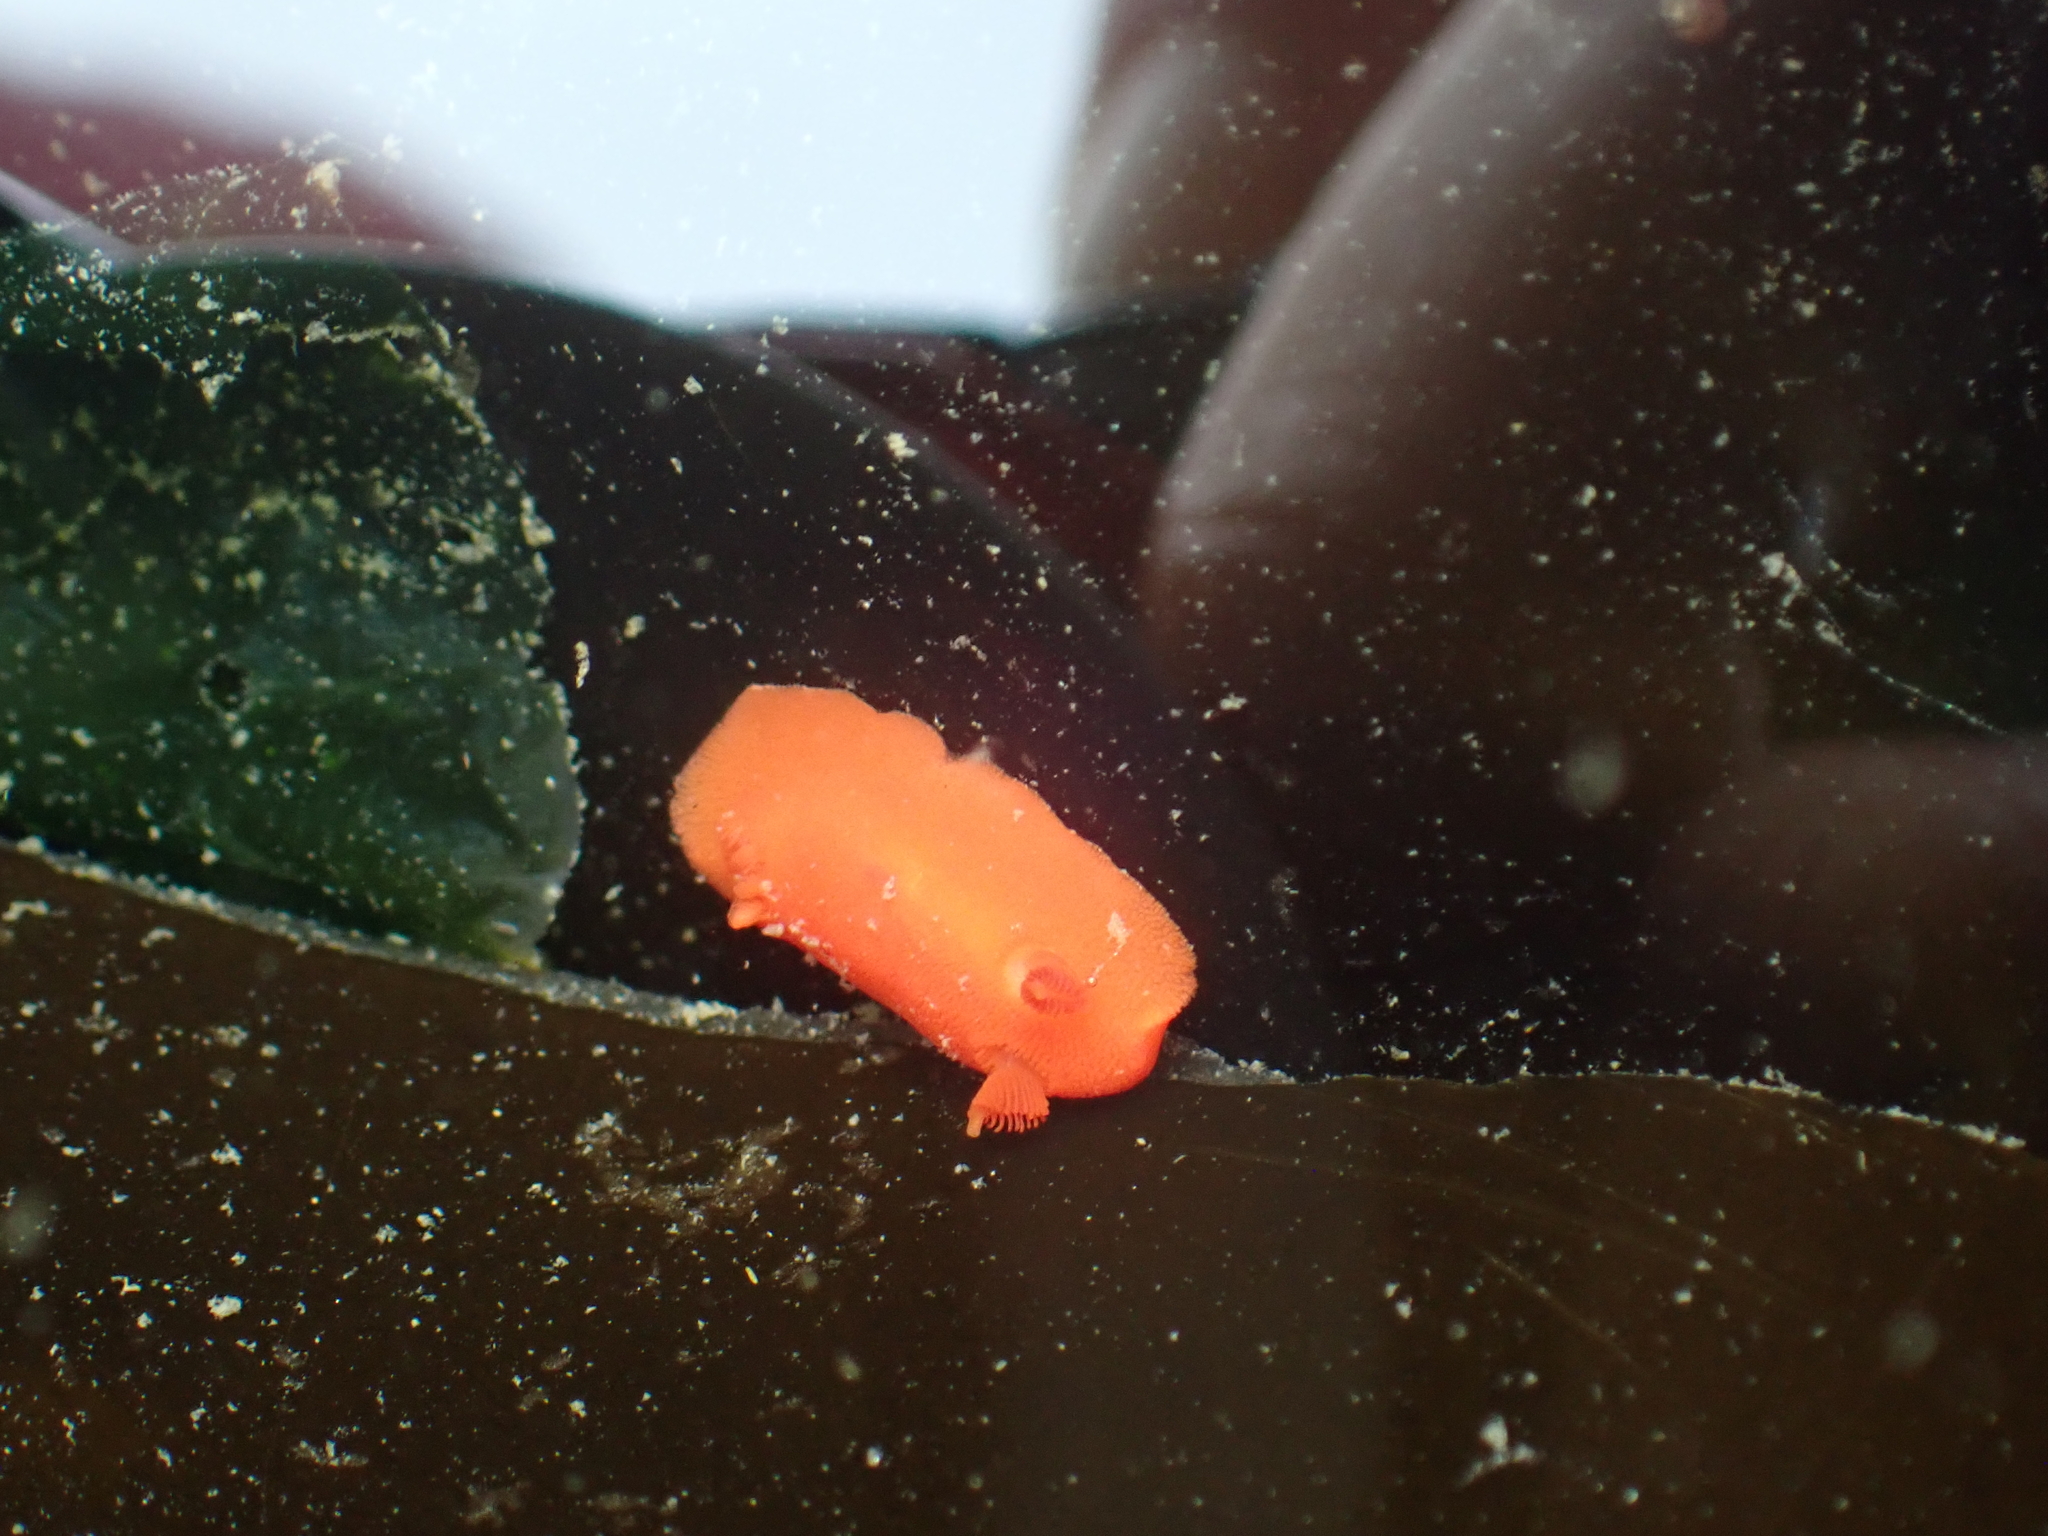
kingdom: Animalia
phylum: Mollusca
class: Gastropoda
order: Nudibranchia
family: Discodorididae
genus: Rostanga
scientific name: Rostanga pulchra
